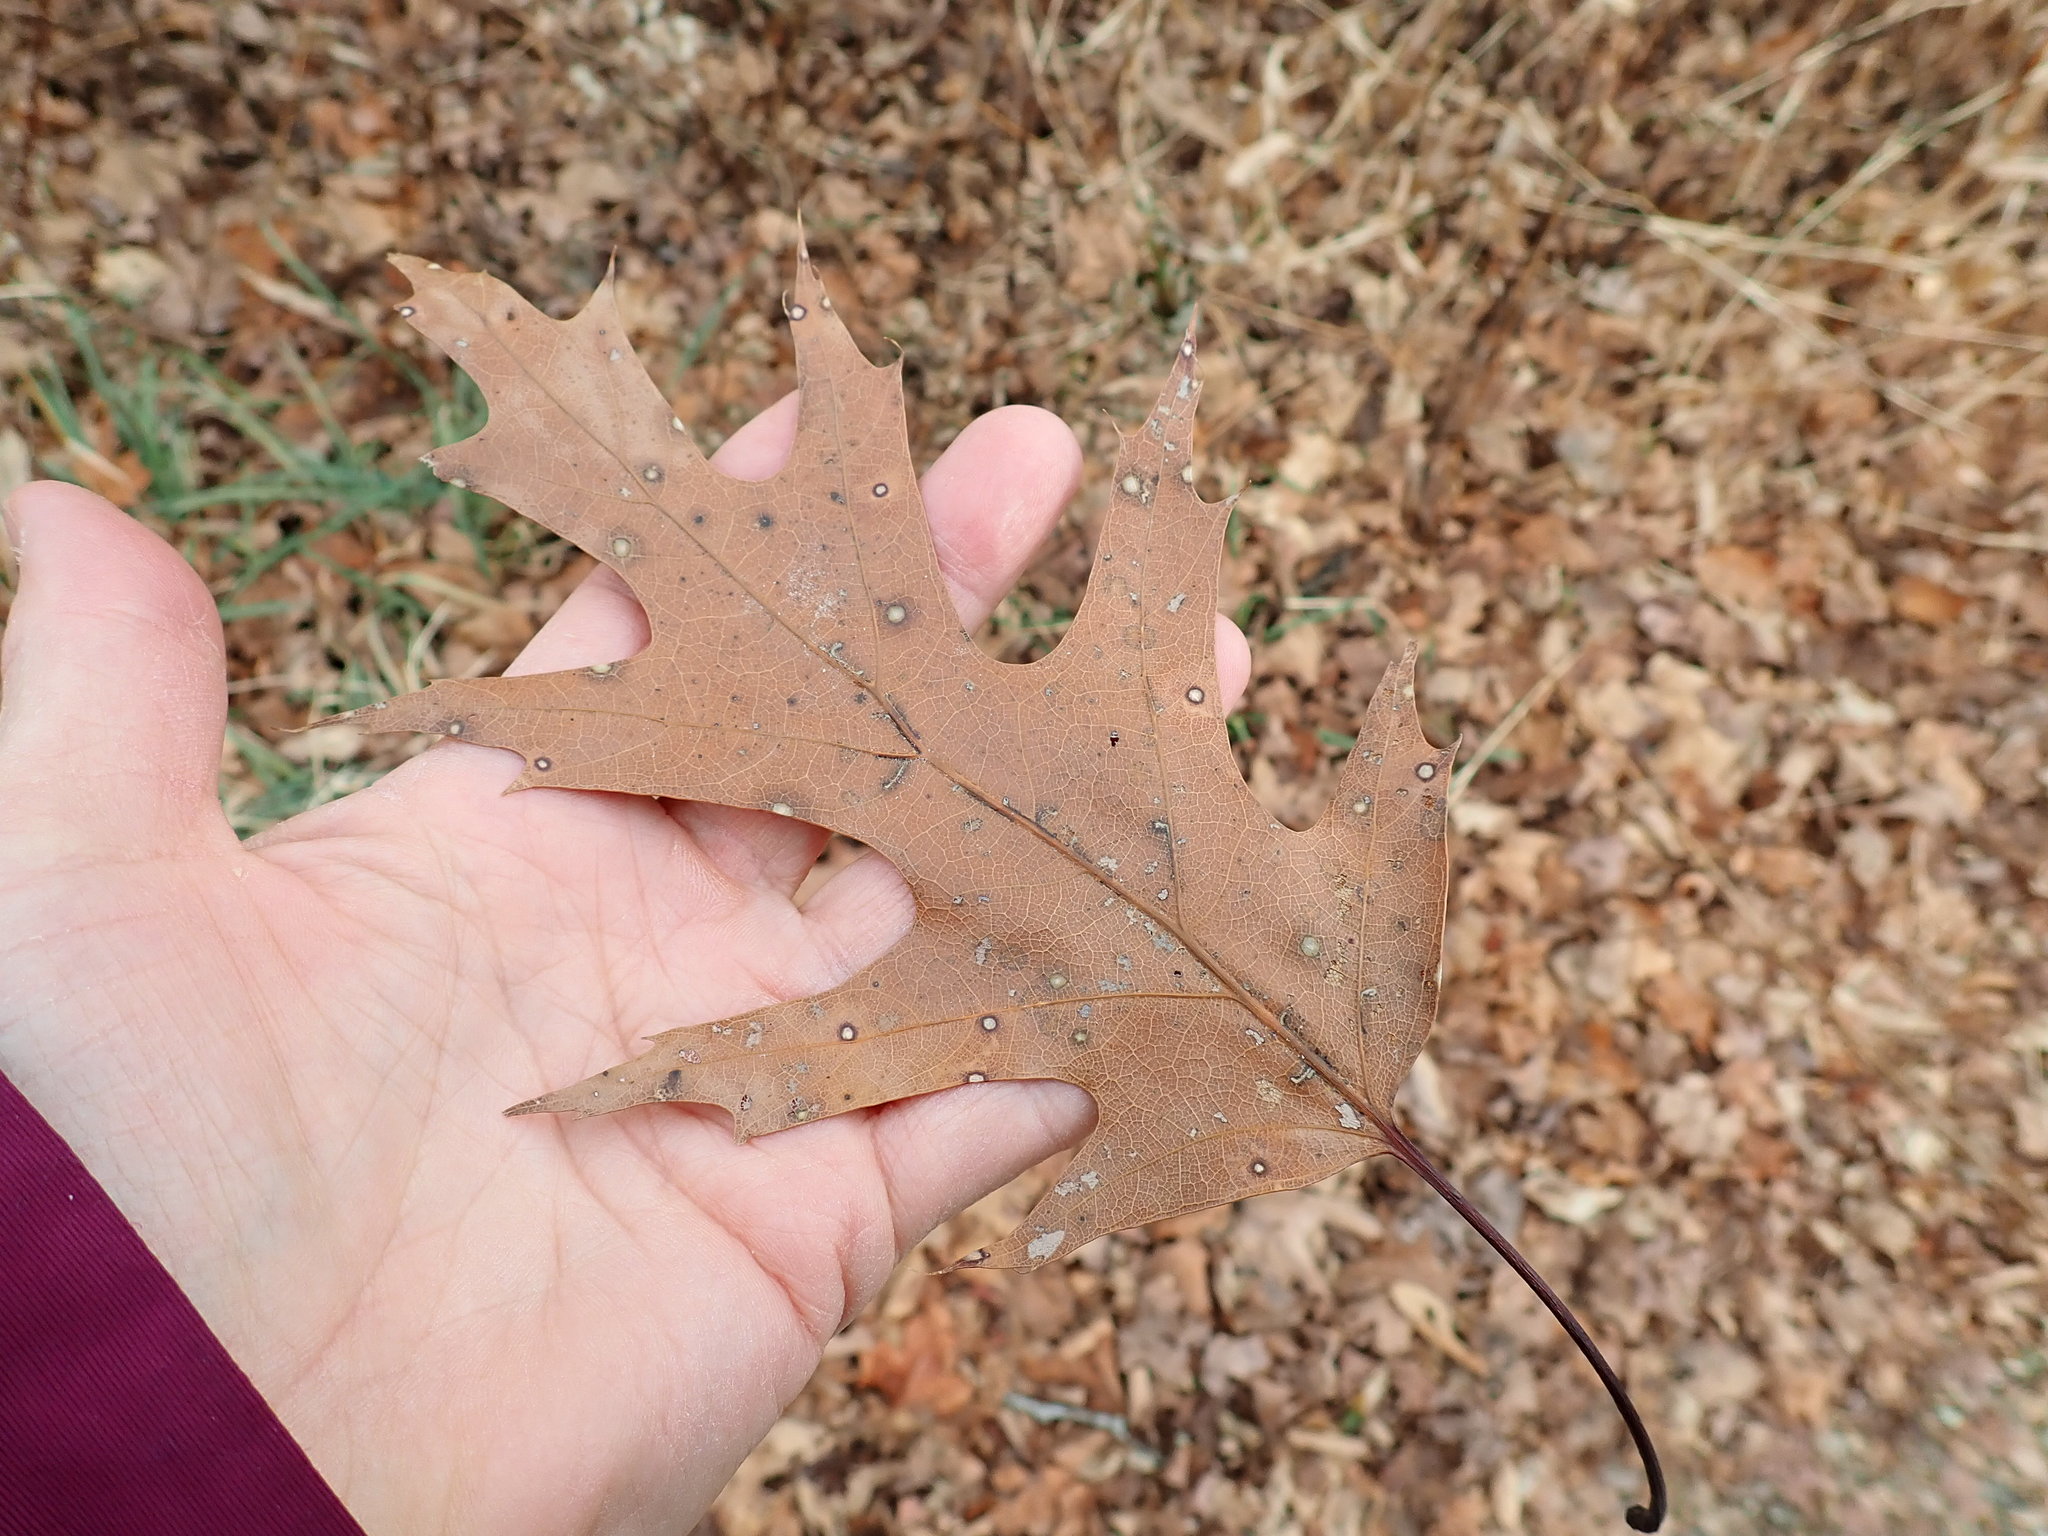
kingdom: Plantae
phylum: Tracheophyta
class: Magnoliopsida
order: Fagales
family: Fagaceae
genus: Quercus
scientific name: Quercus rubra
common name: Red oak
